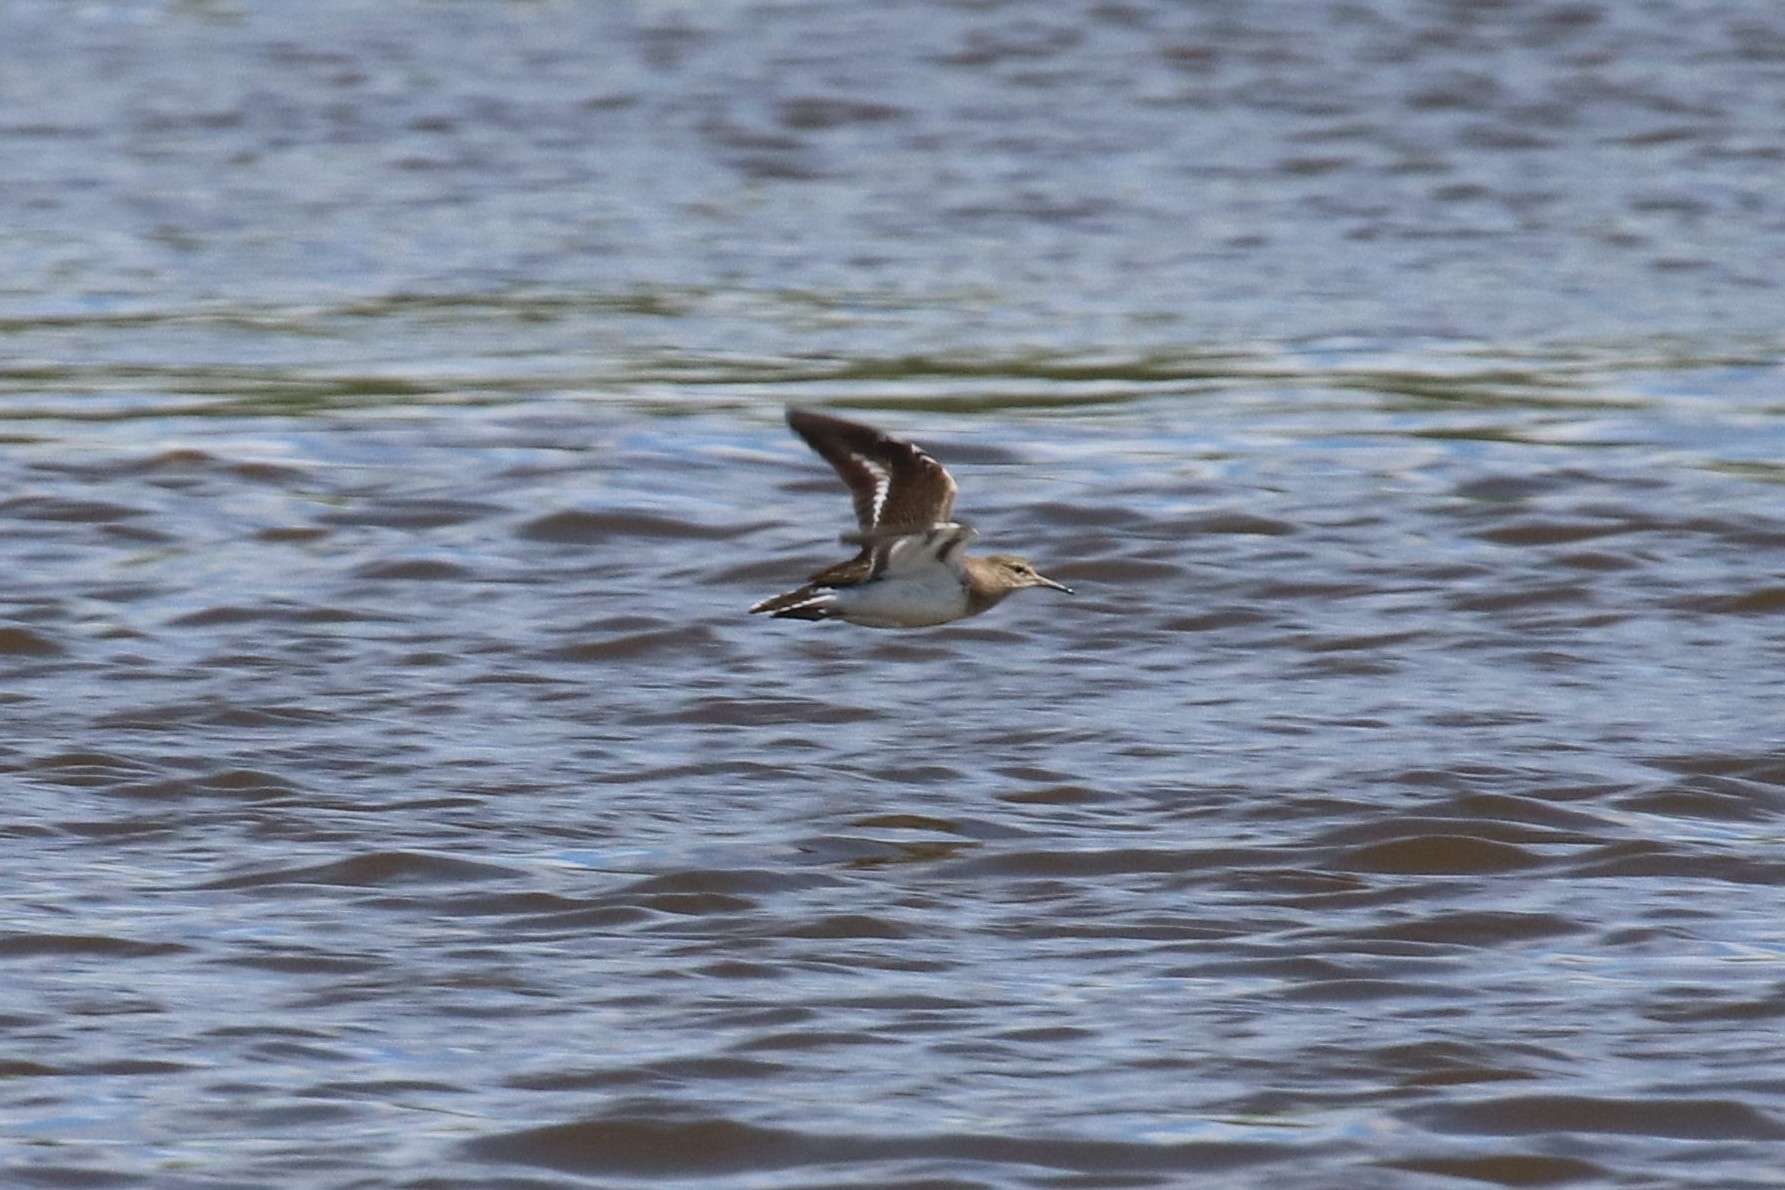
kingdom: Animalia
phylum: Chordata
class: Aves
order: Charadriiformes
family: Scolopacidae
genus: Actitis
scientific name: Actitis hypoleucos
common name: Common sandpiper
